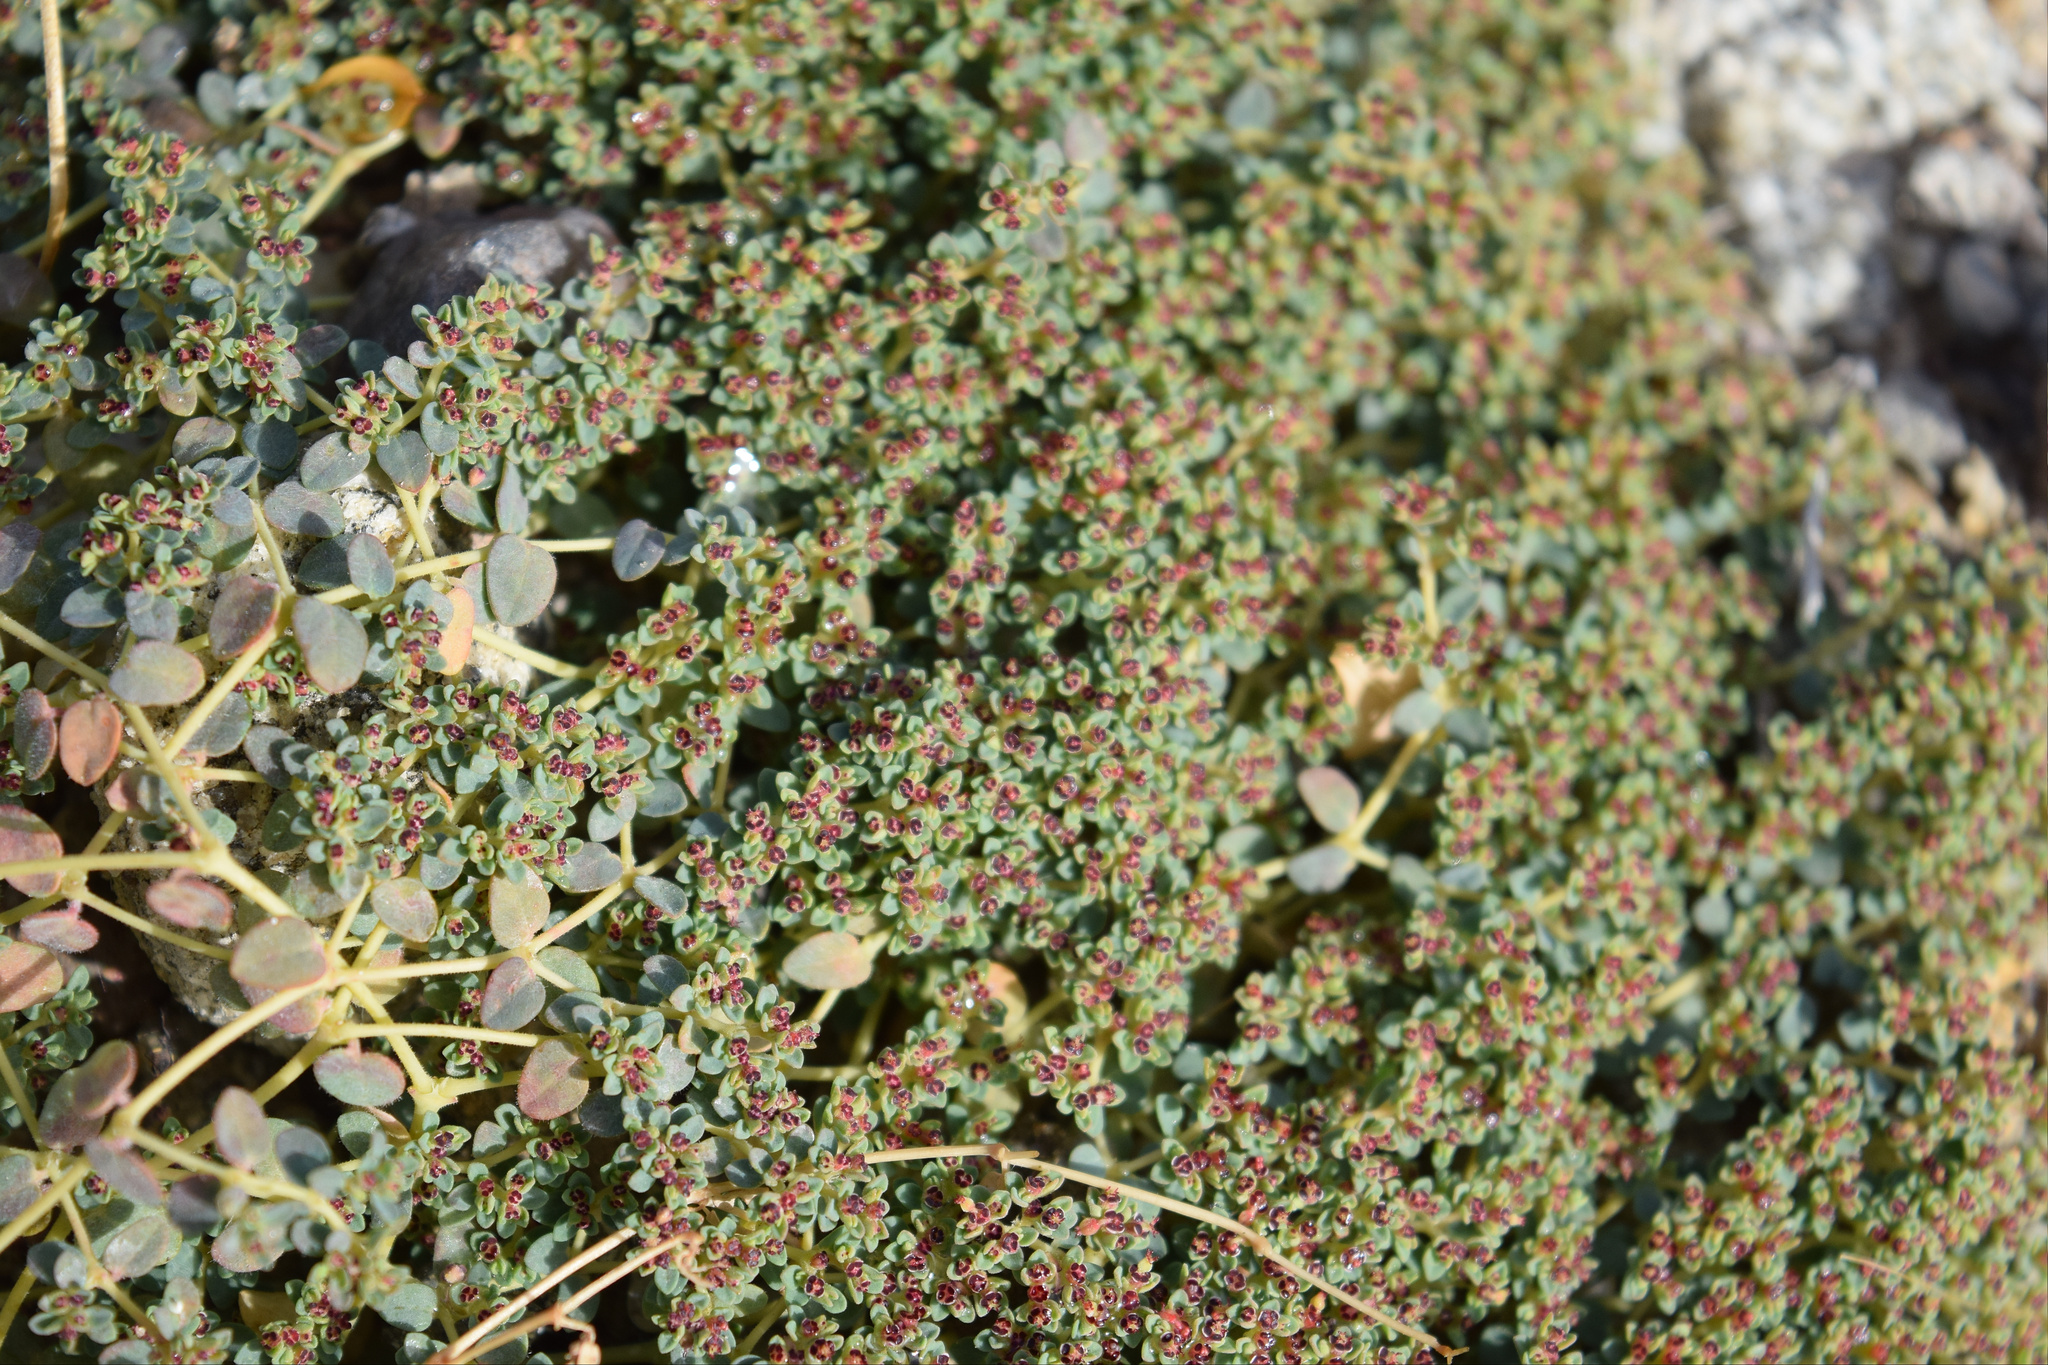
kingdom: Plantae
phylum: Tracheophyta
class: Magnoliopsida
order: Malpighiales
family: Euphorbiaceae
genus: Euphorbia
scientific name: Euphorbia polycarpa
